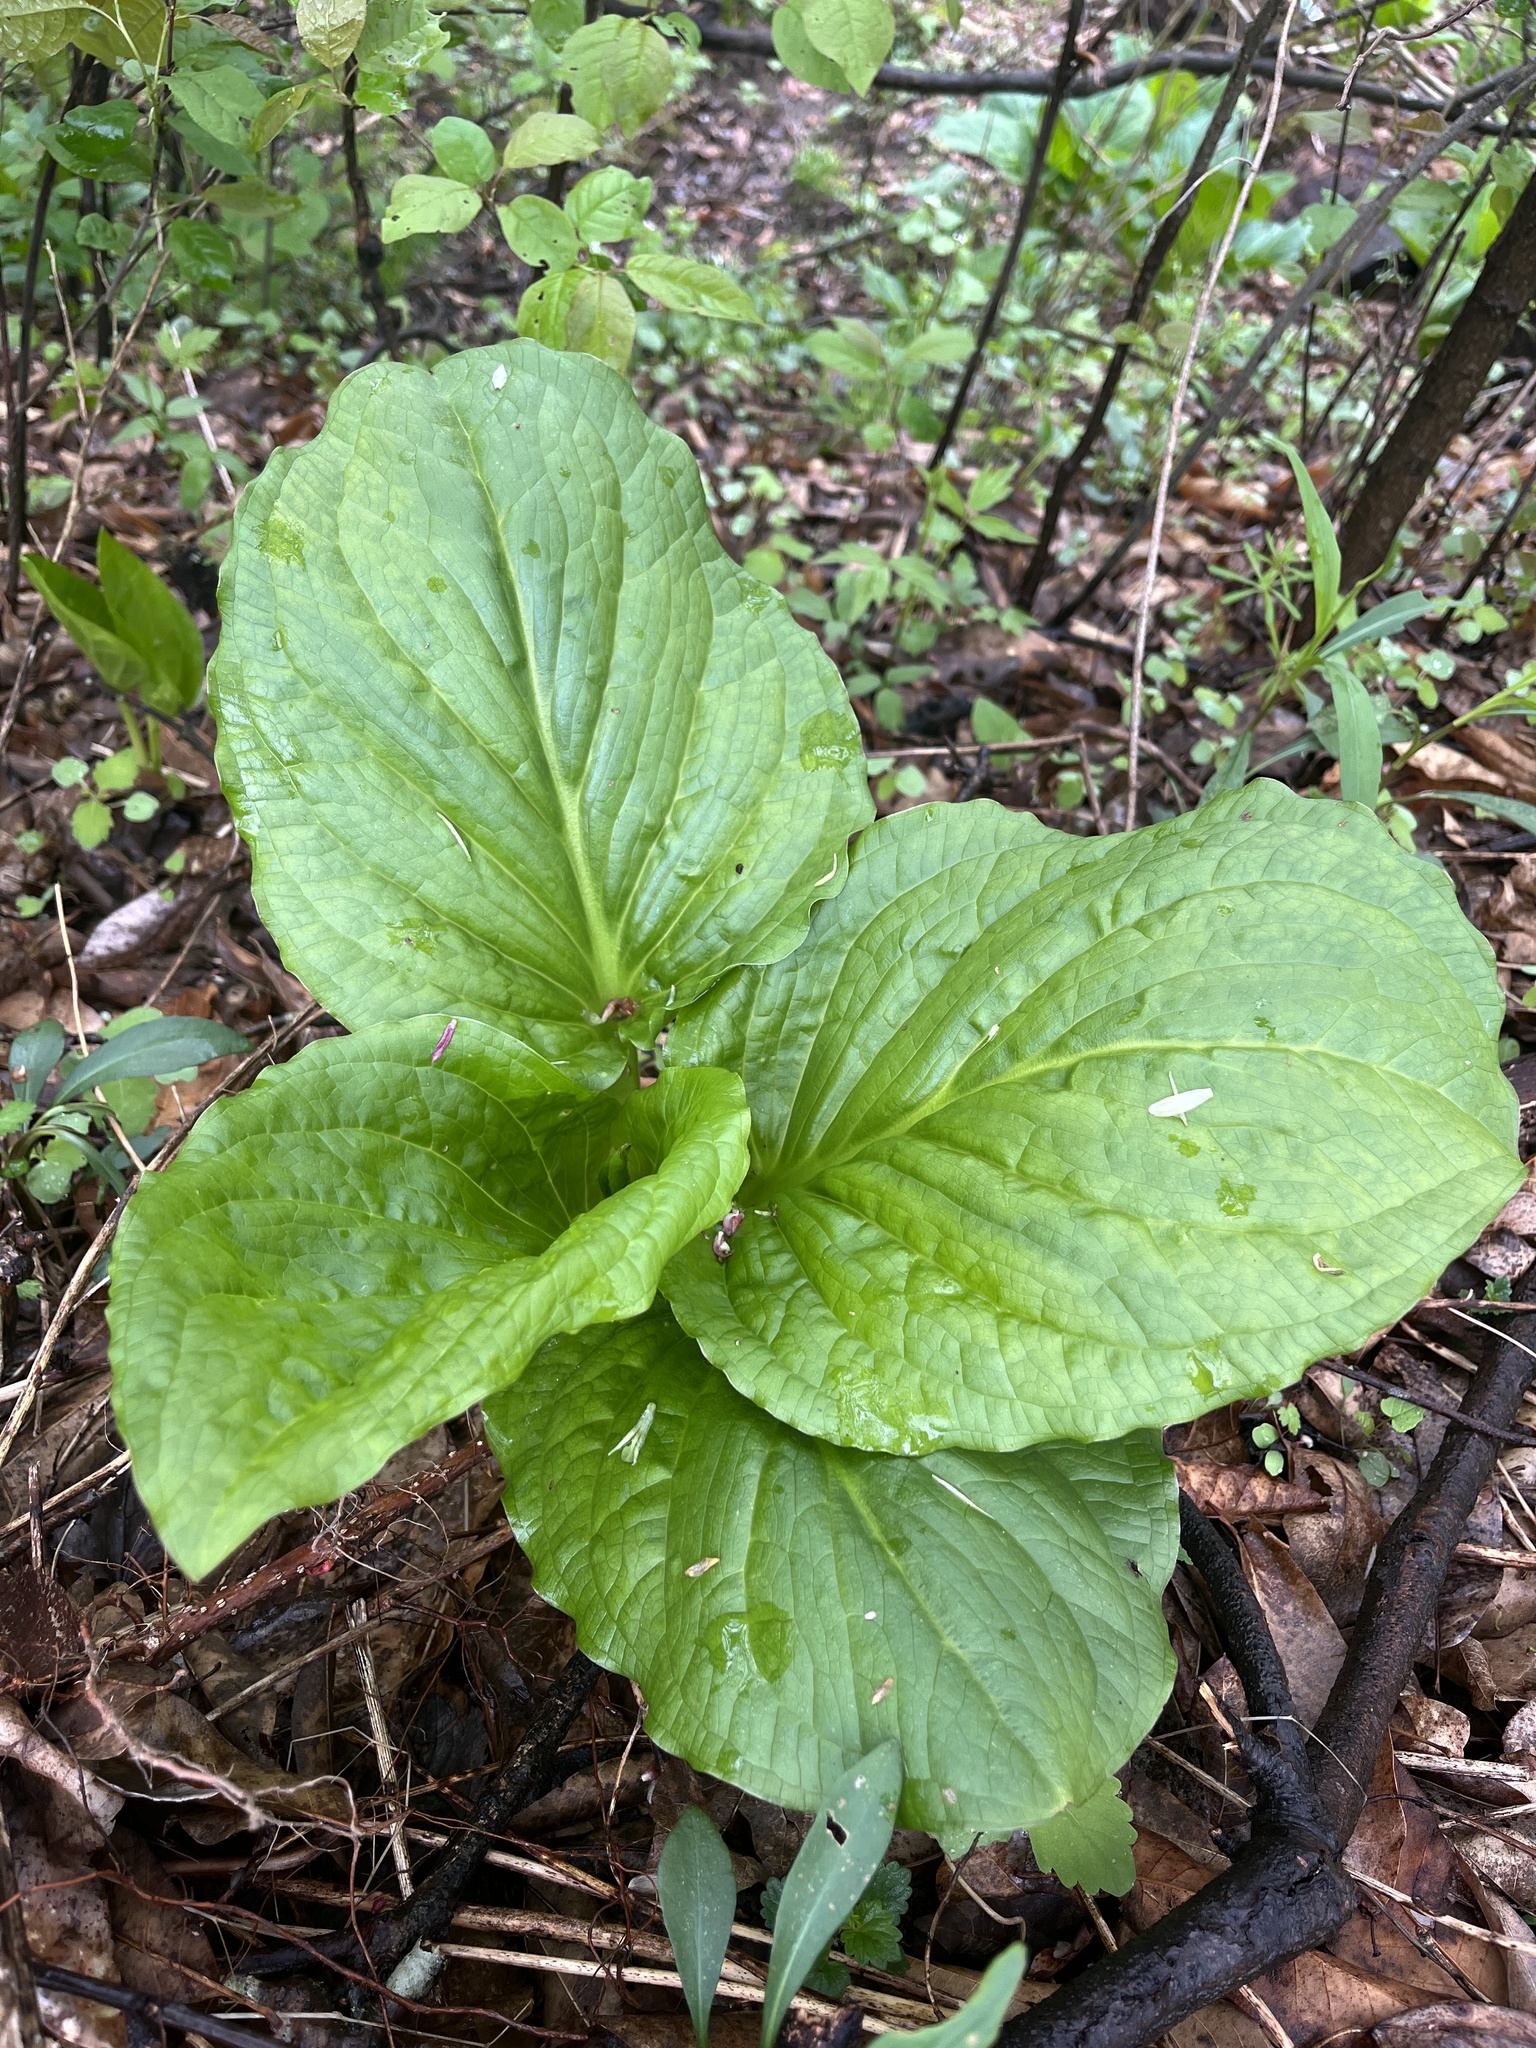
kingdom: Plantae
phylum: Tracheophyta
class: Liliopsida
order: Alismatales
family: Araceae
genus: Symplocarpus
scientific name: Symplocarpus foetidus
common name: Eastern skunk cabbage
